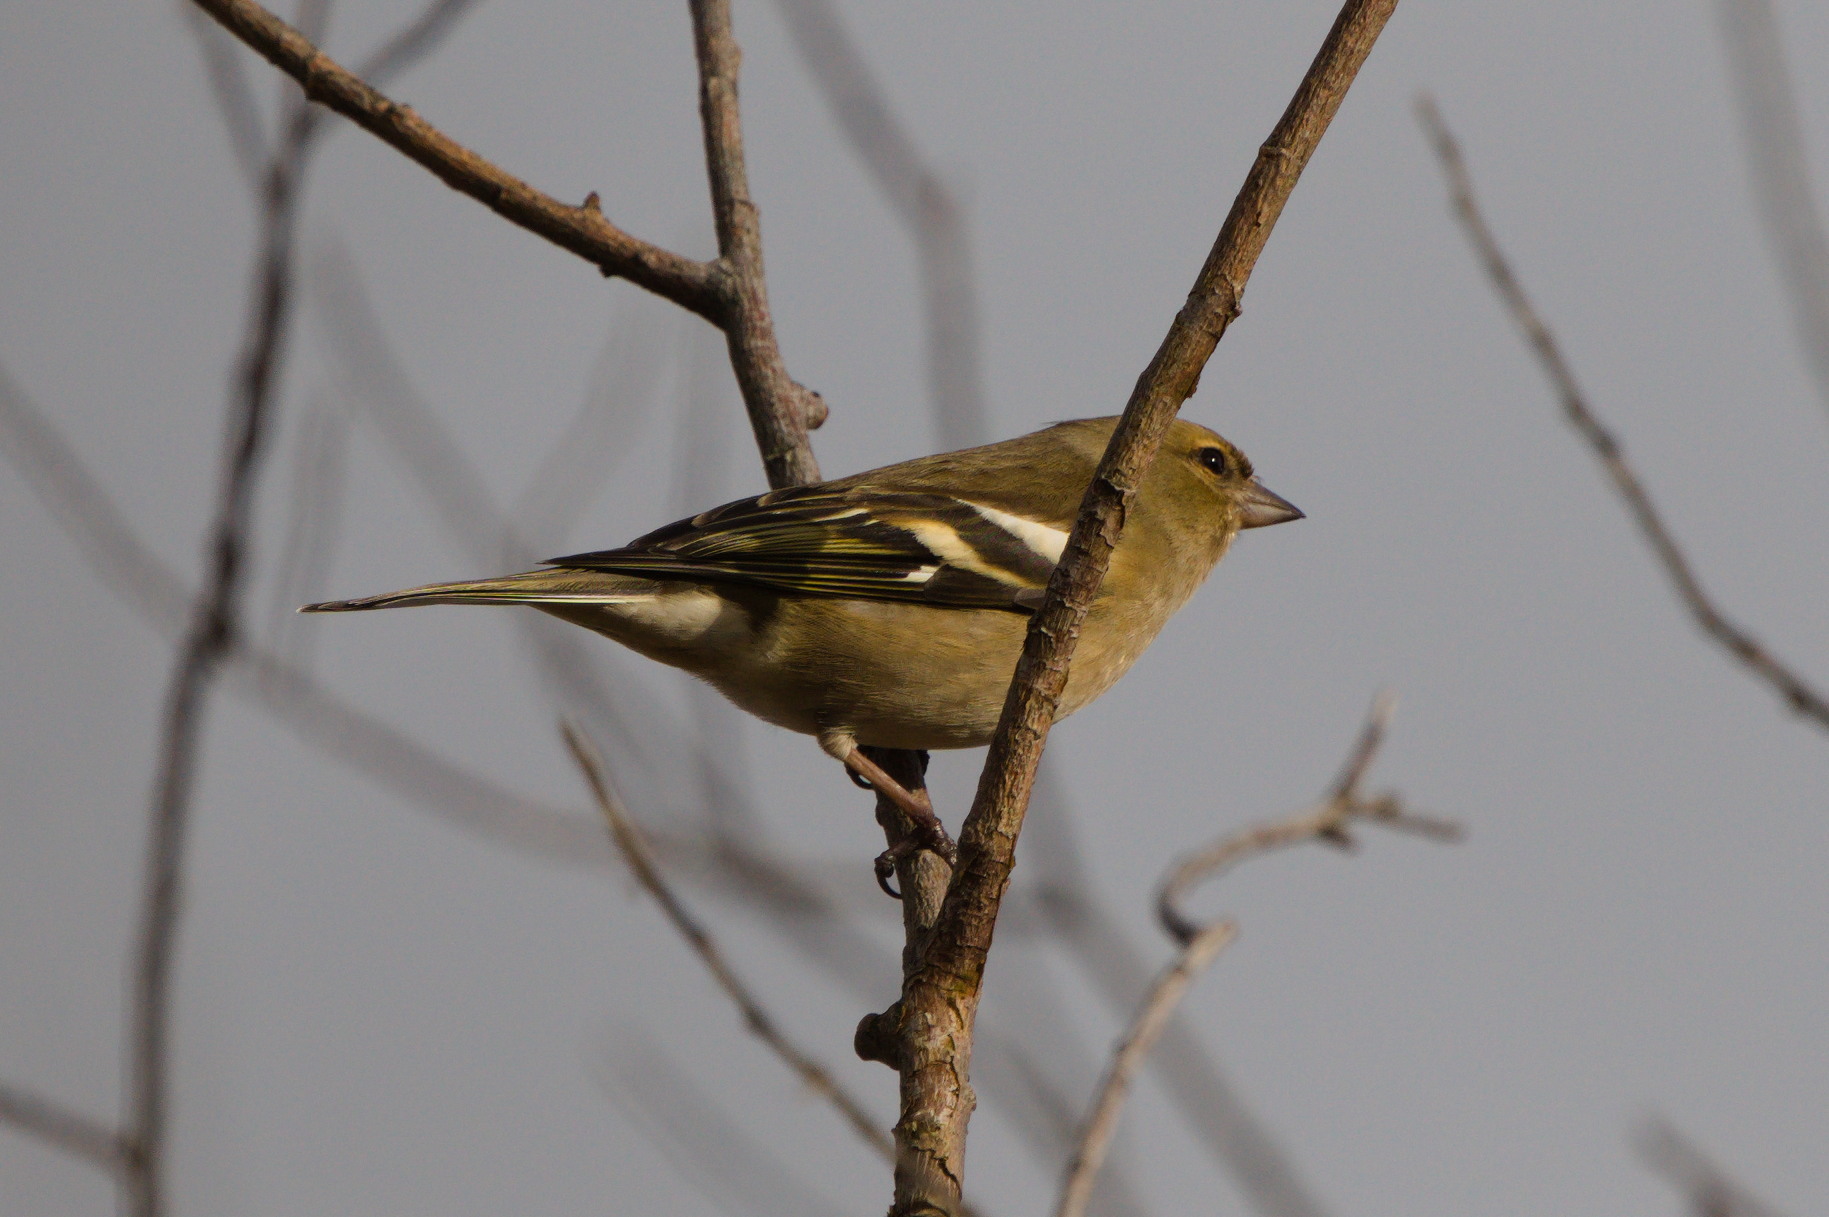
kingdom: Animalia
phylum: Chordata
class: Aves
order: Passeriformes
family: Fringillidae
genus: Fringilla
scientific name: Fringilla coelebs
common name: Common chaffinch
